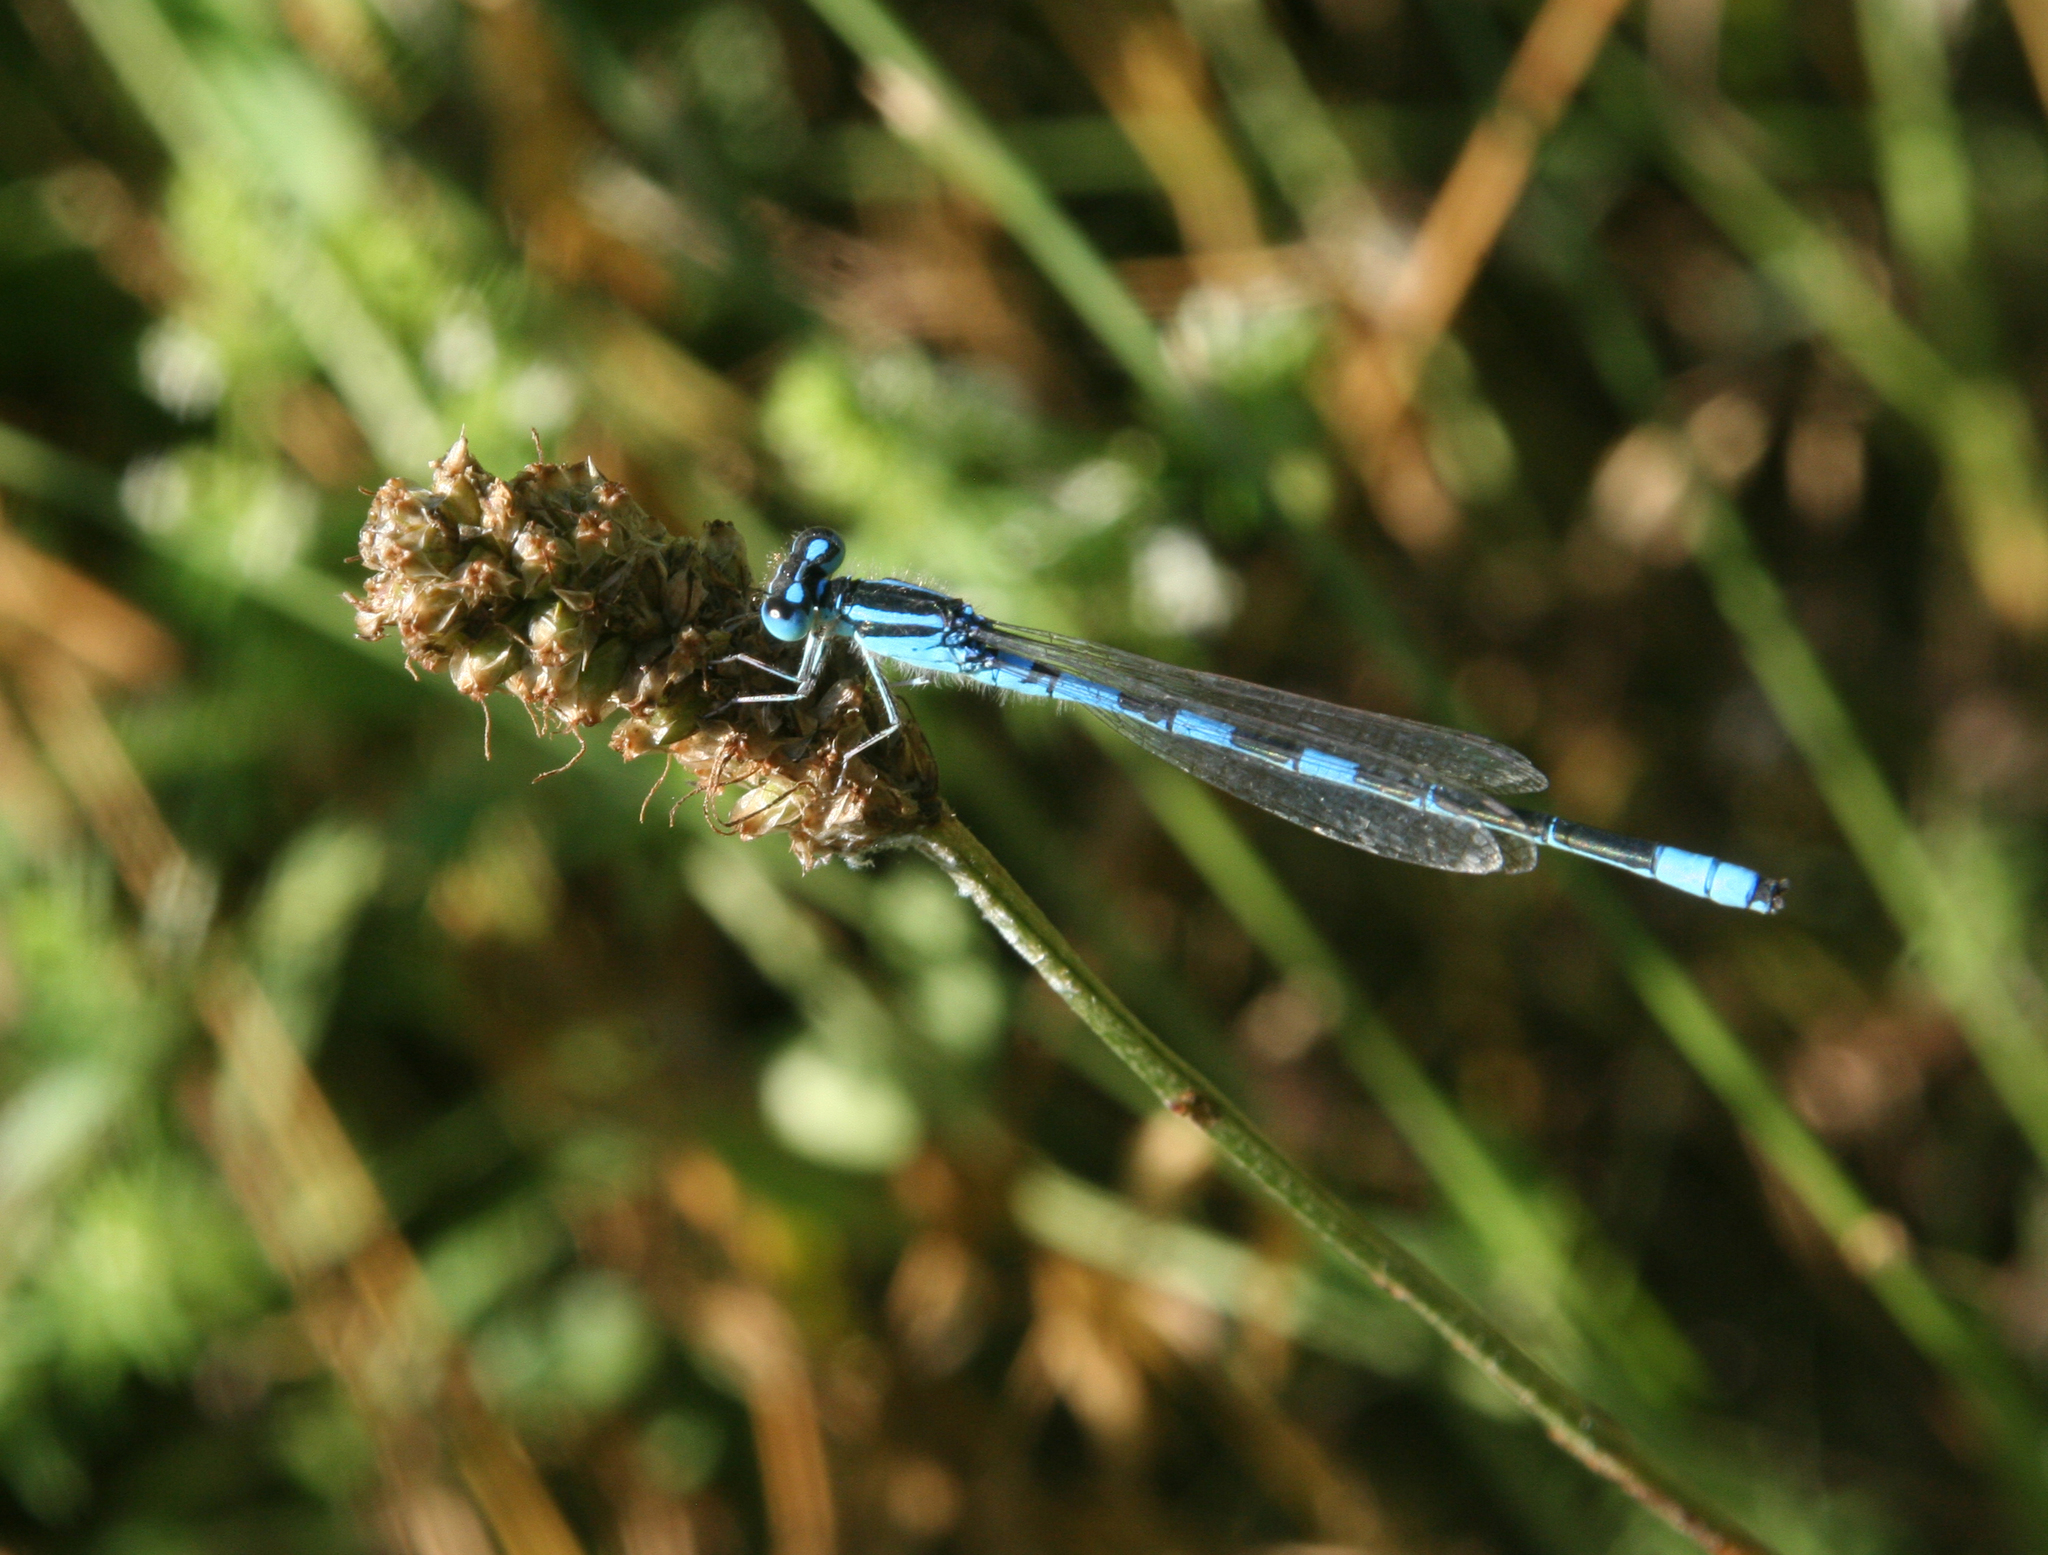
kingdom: Animalia
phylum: Arthropoda
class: Insecta
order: Odonata
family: Coenagrionidae
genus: Coenagrion
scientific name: Coenagrion scitulum
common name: Dainty bluet
